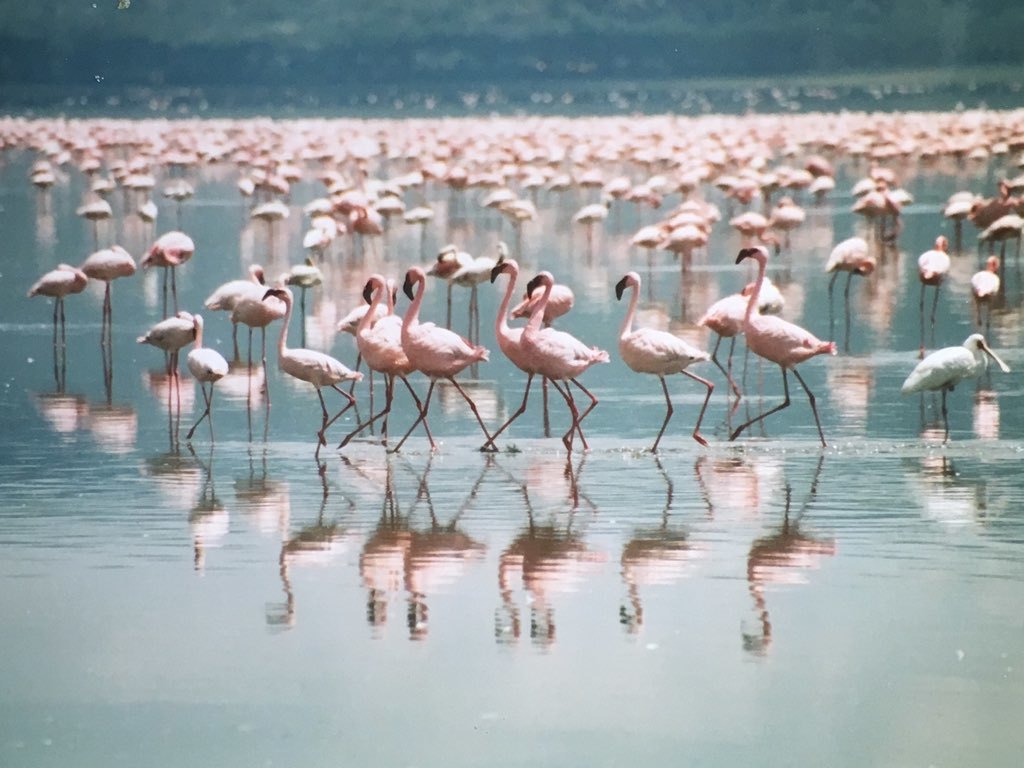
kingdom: Animalia
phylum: Chordata
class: Aves
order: Phoenicopteriformes
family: Phoenicopteridae
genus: Phoeniconaias
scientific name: Phoeniconaias minor
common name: Lesser flamingo
